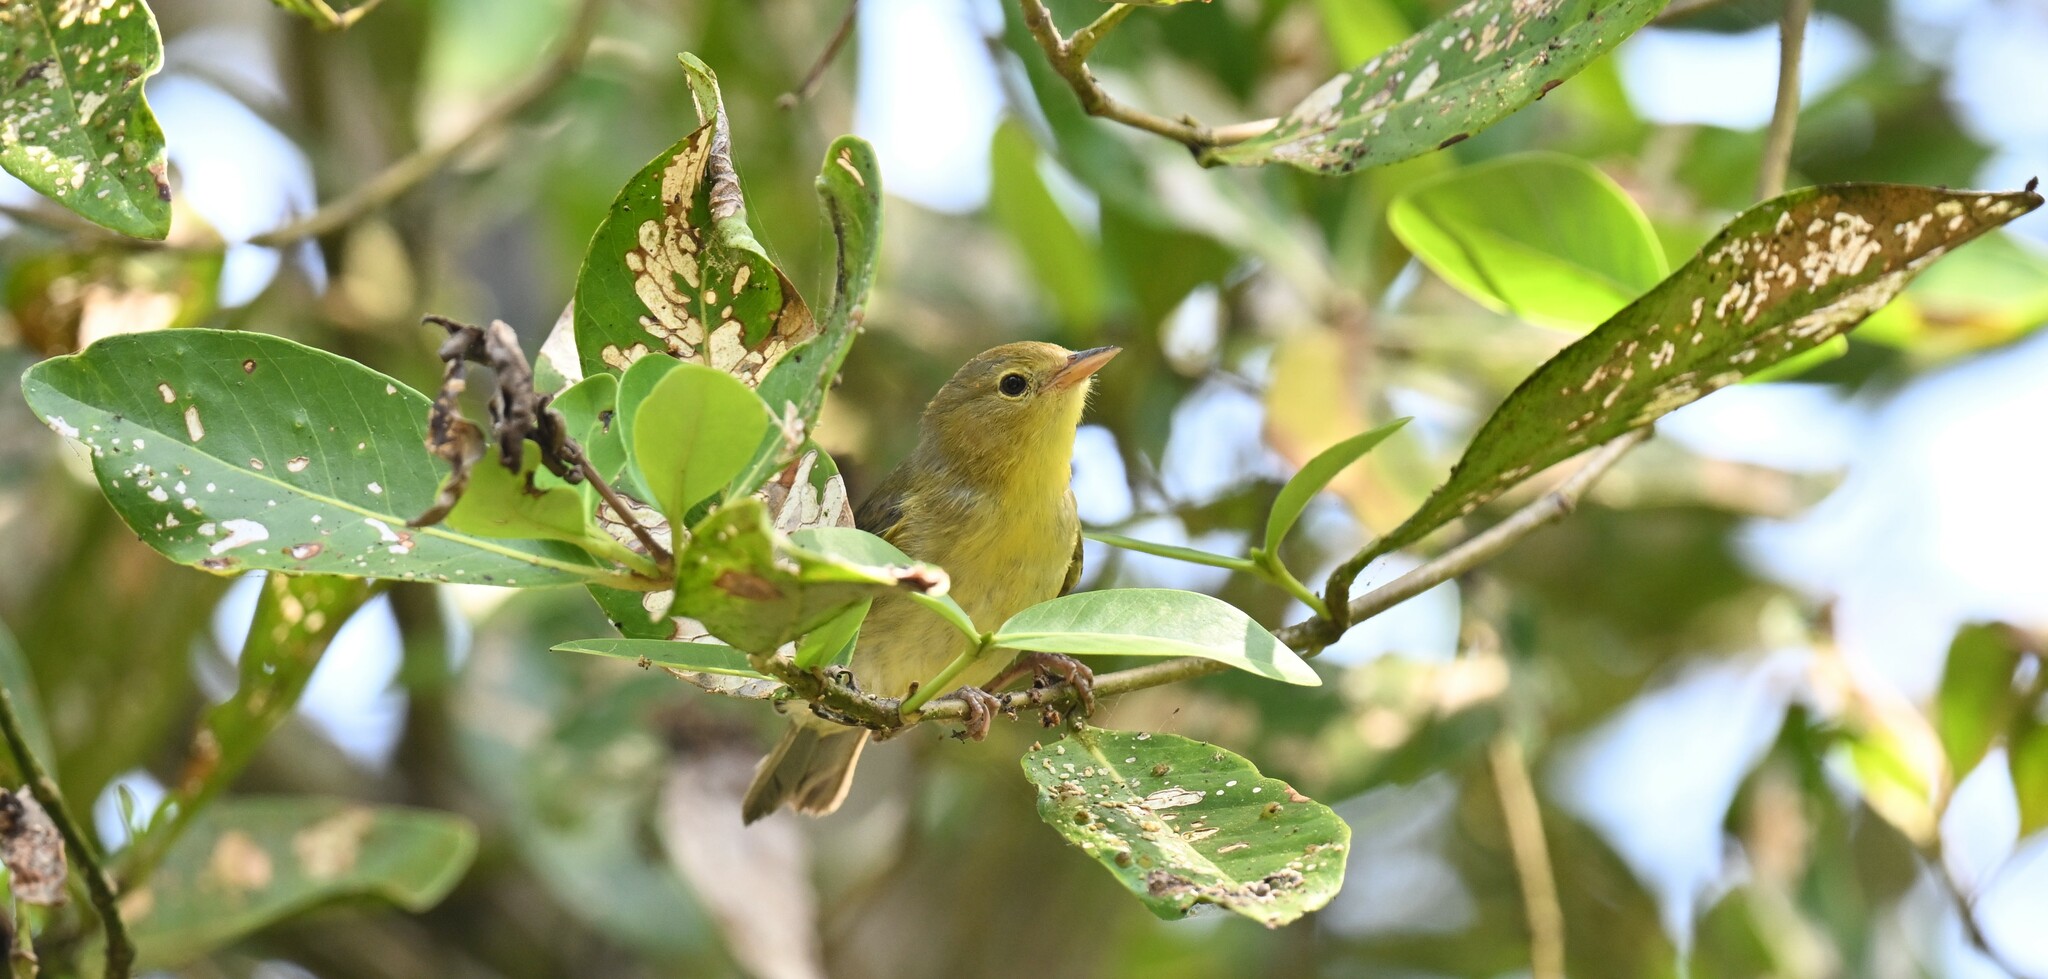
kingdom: Animalia
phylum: Chordata
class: Aves
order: Passeriformes
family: Thraupidae
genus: Conirostrum
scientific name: Conirostrum bicolor
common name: Bicolored conebill
